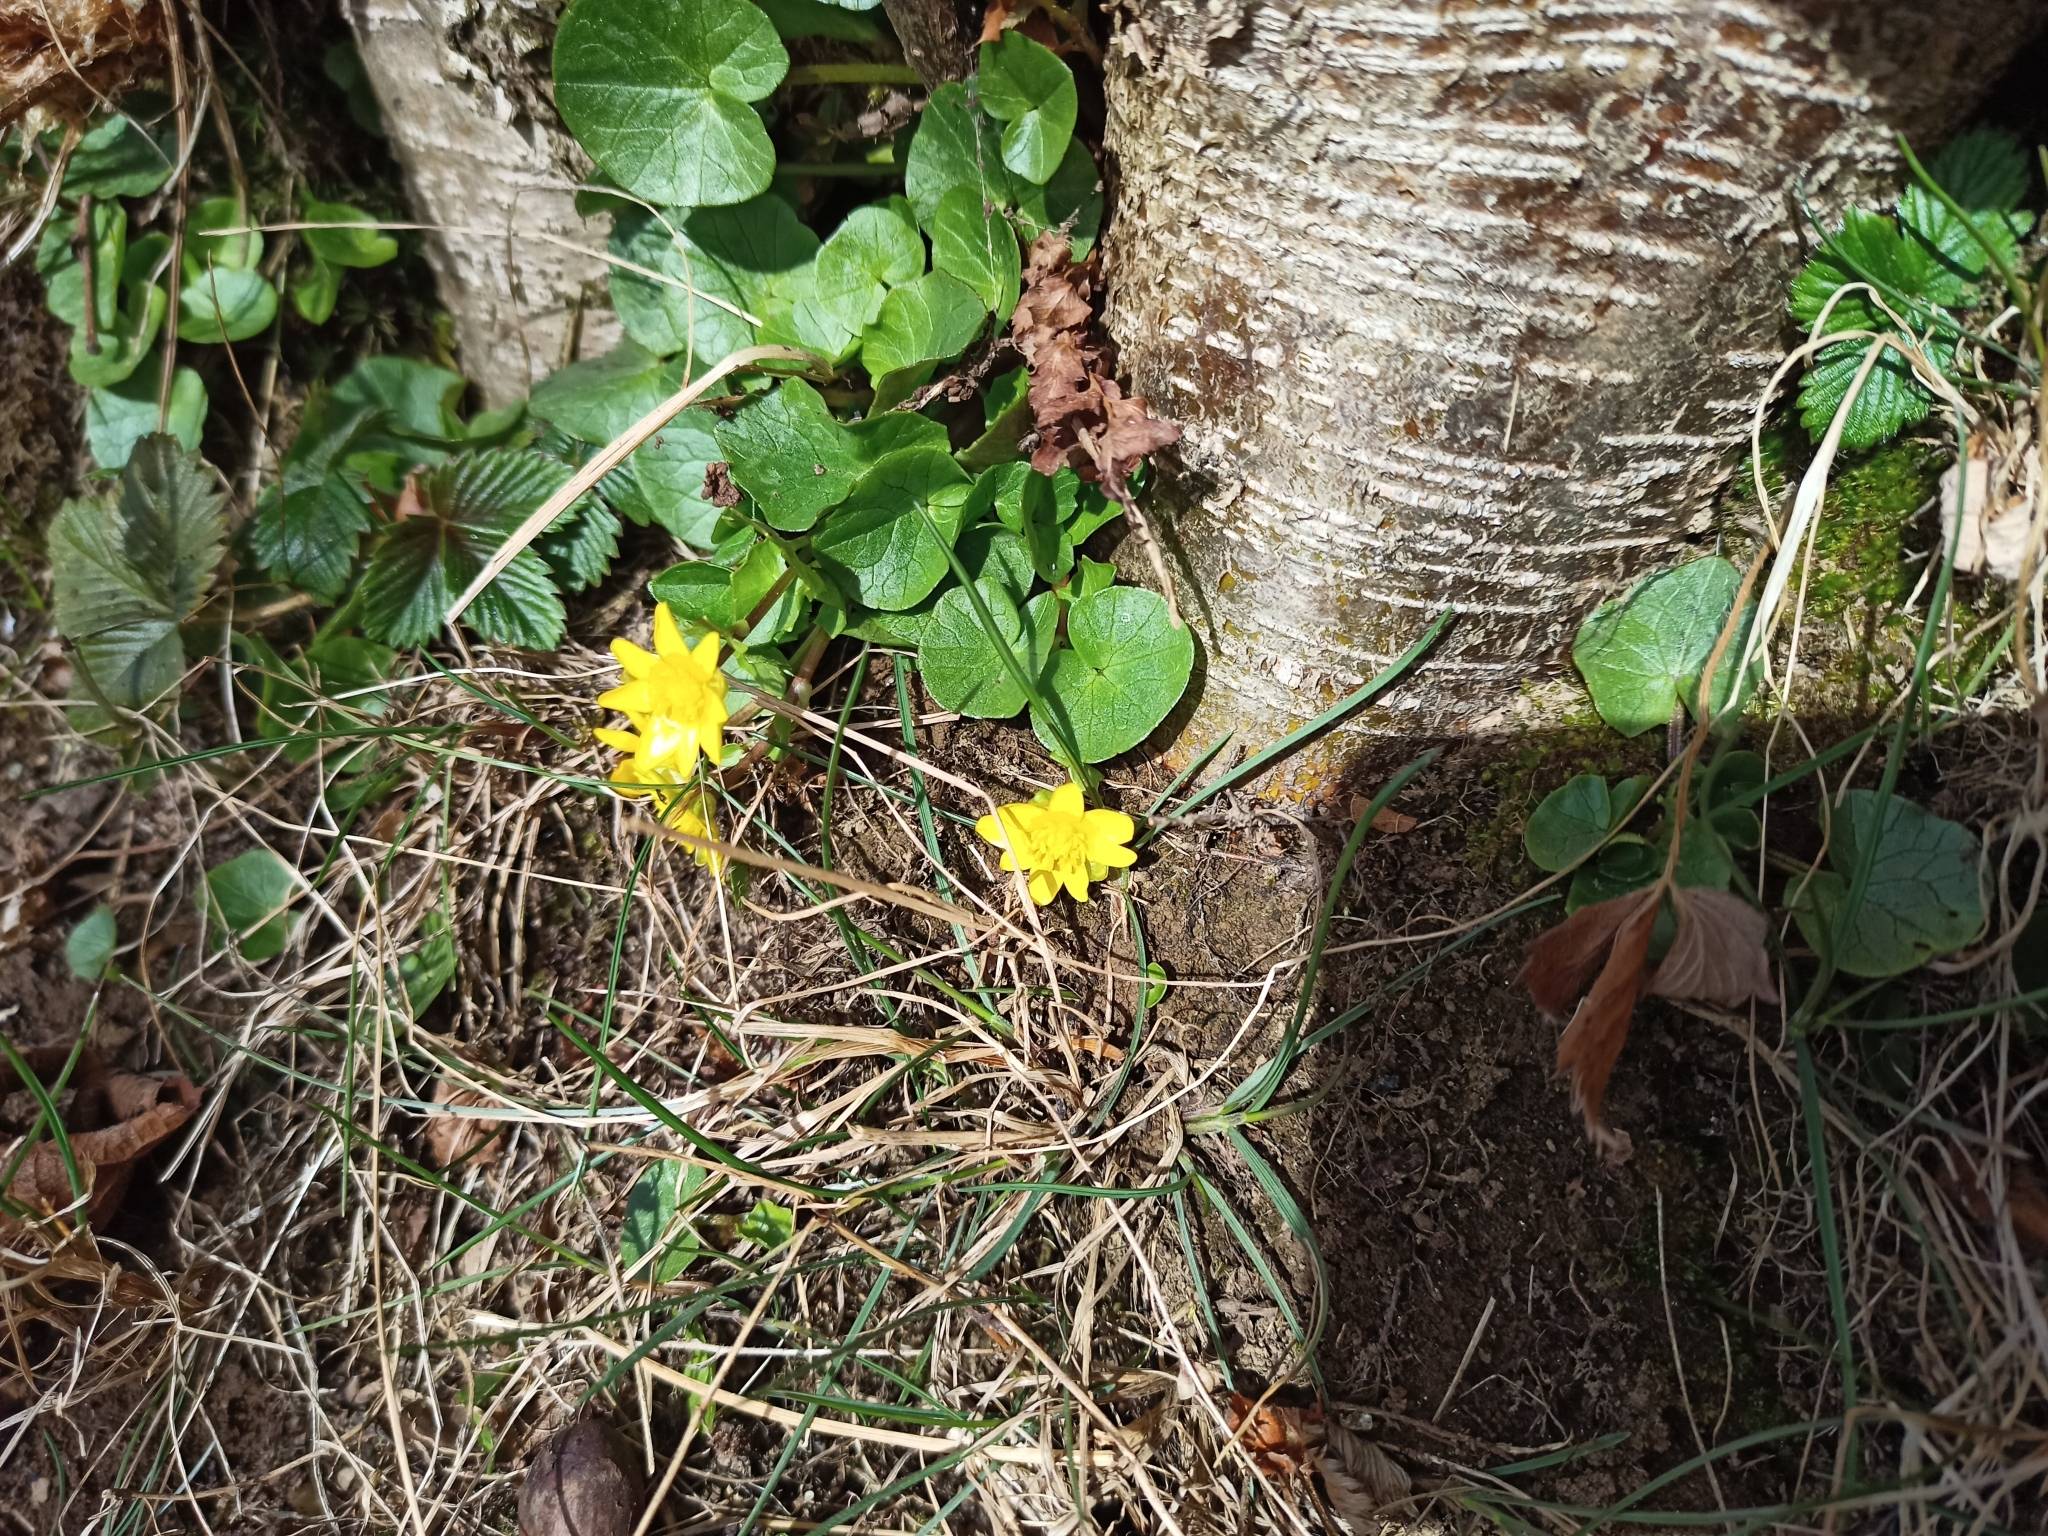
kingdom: Plantae
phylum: Tracheophyta
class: Magnoliopsida
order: Ranunculales
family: Ranunculaceae
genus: Ficaria
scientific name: Ficaria verna
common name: Lesser celandine
